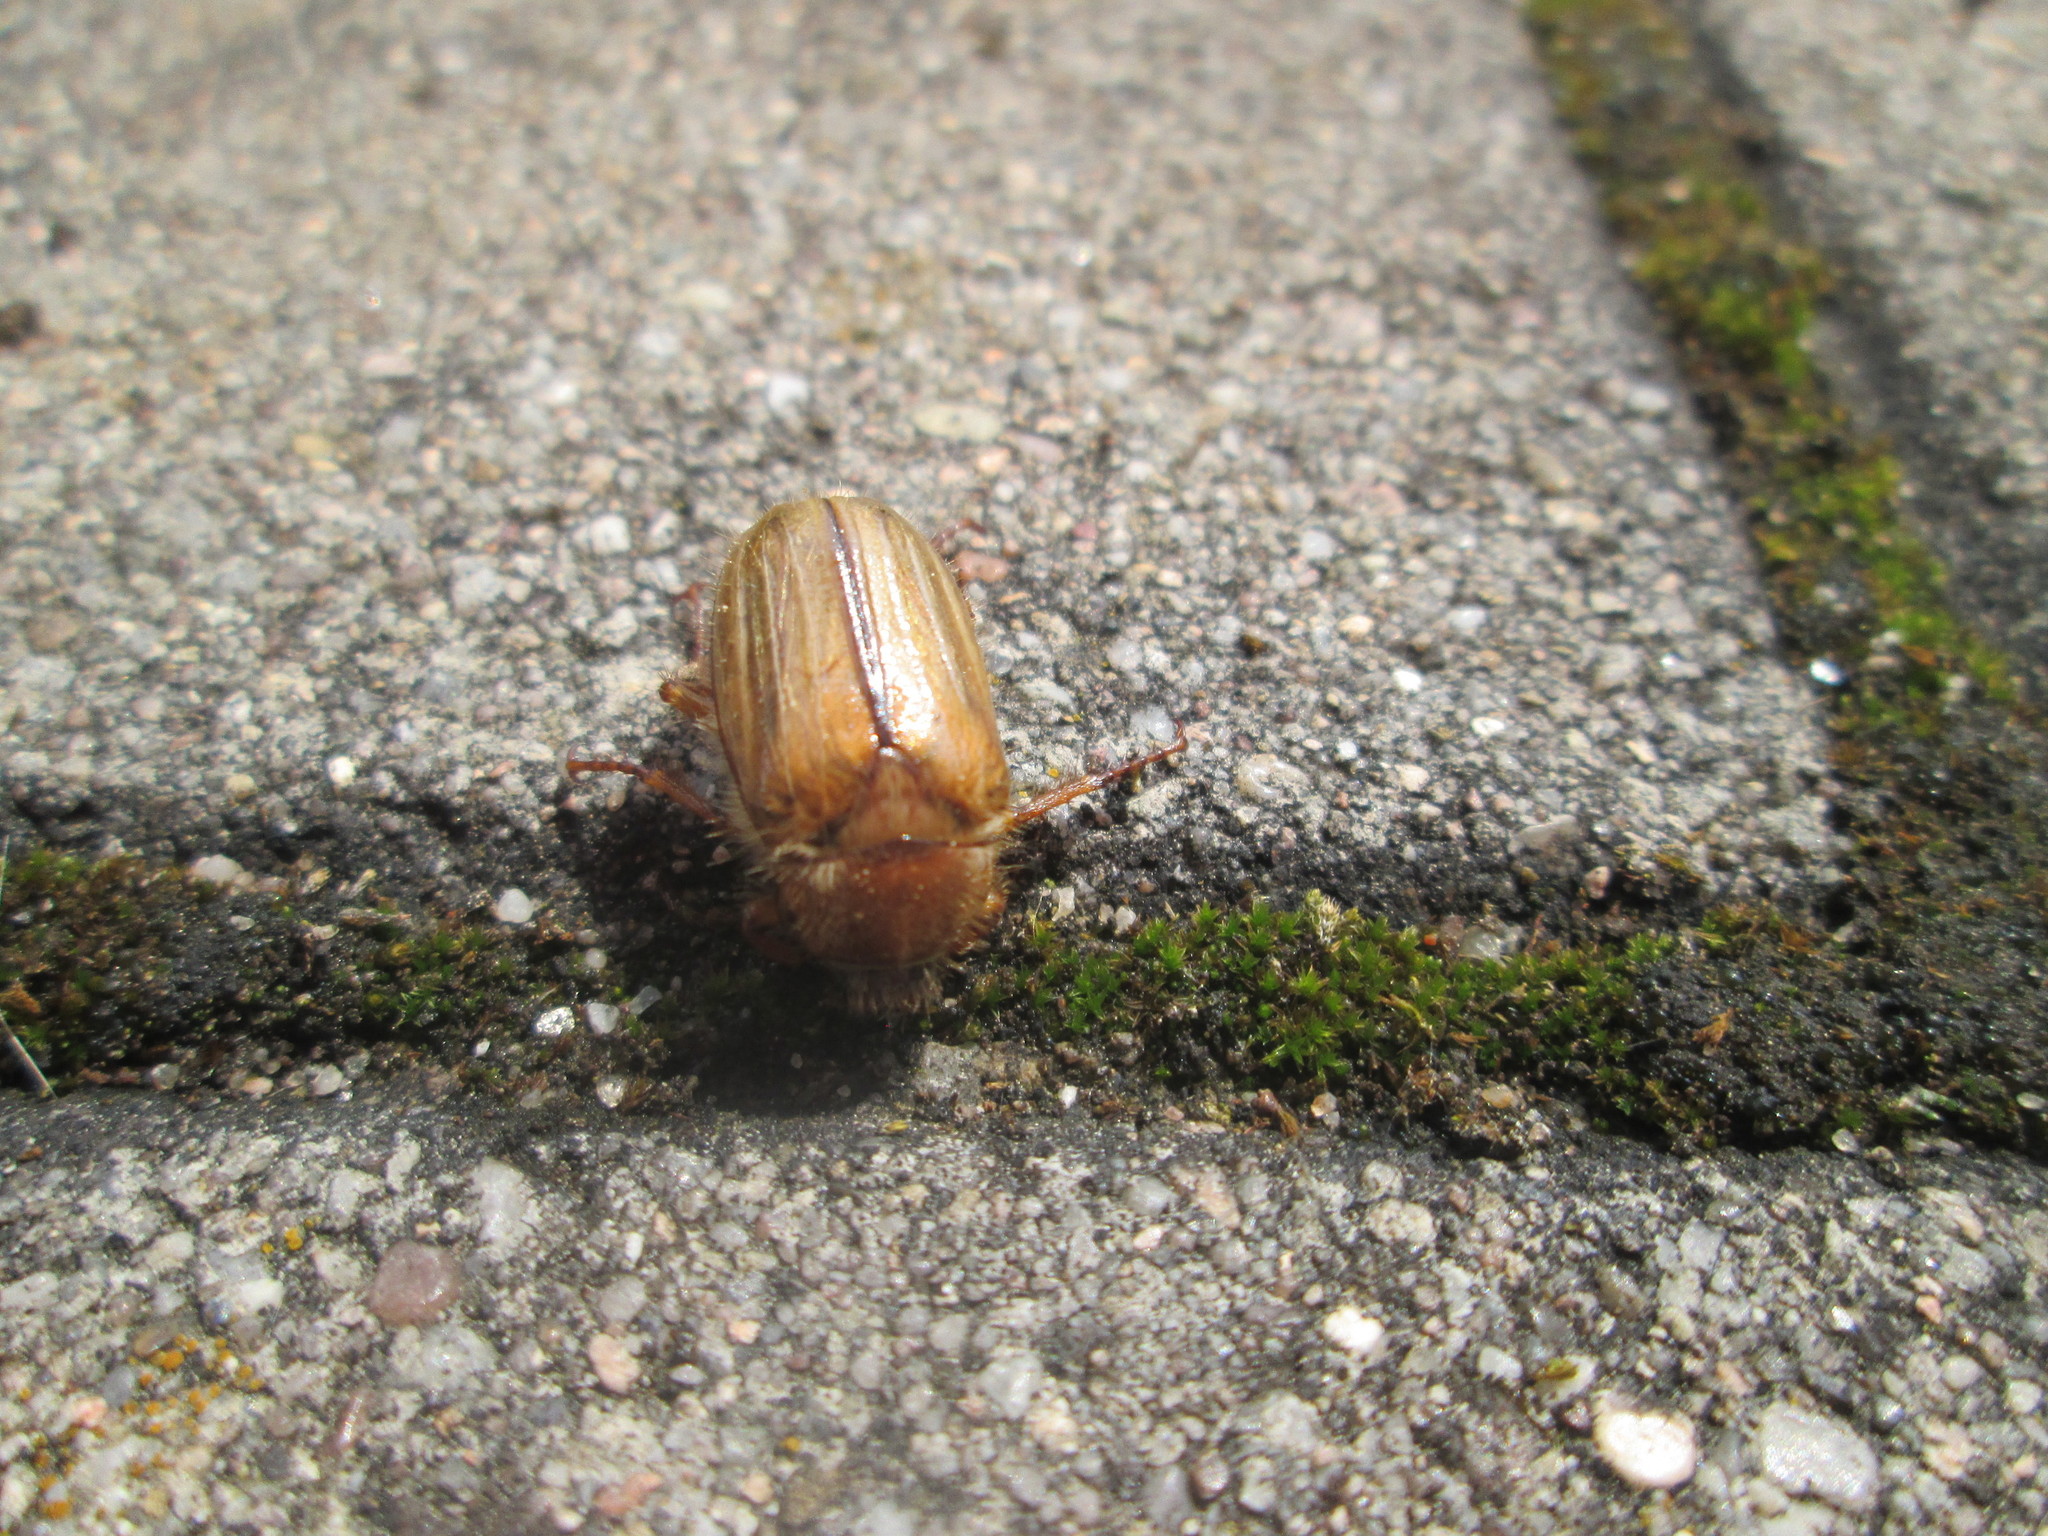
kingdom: Animalia
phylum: Arthropoda
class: Insecta
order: Coleoptera
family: Scarabaeidae
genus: Amphimallon
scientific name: Amphimallon solstitiale
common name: Summer chafer
